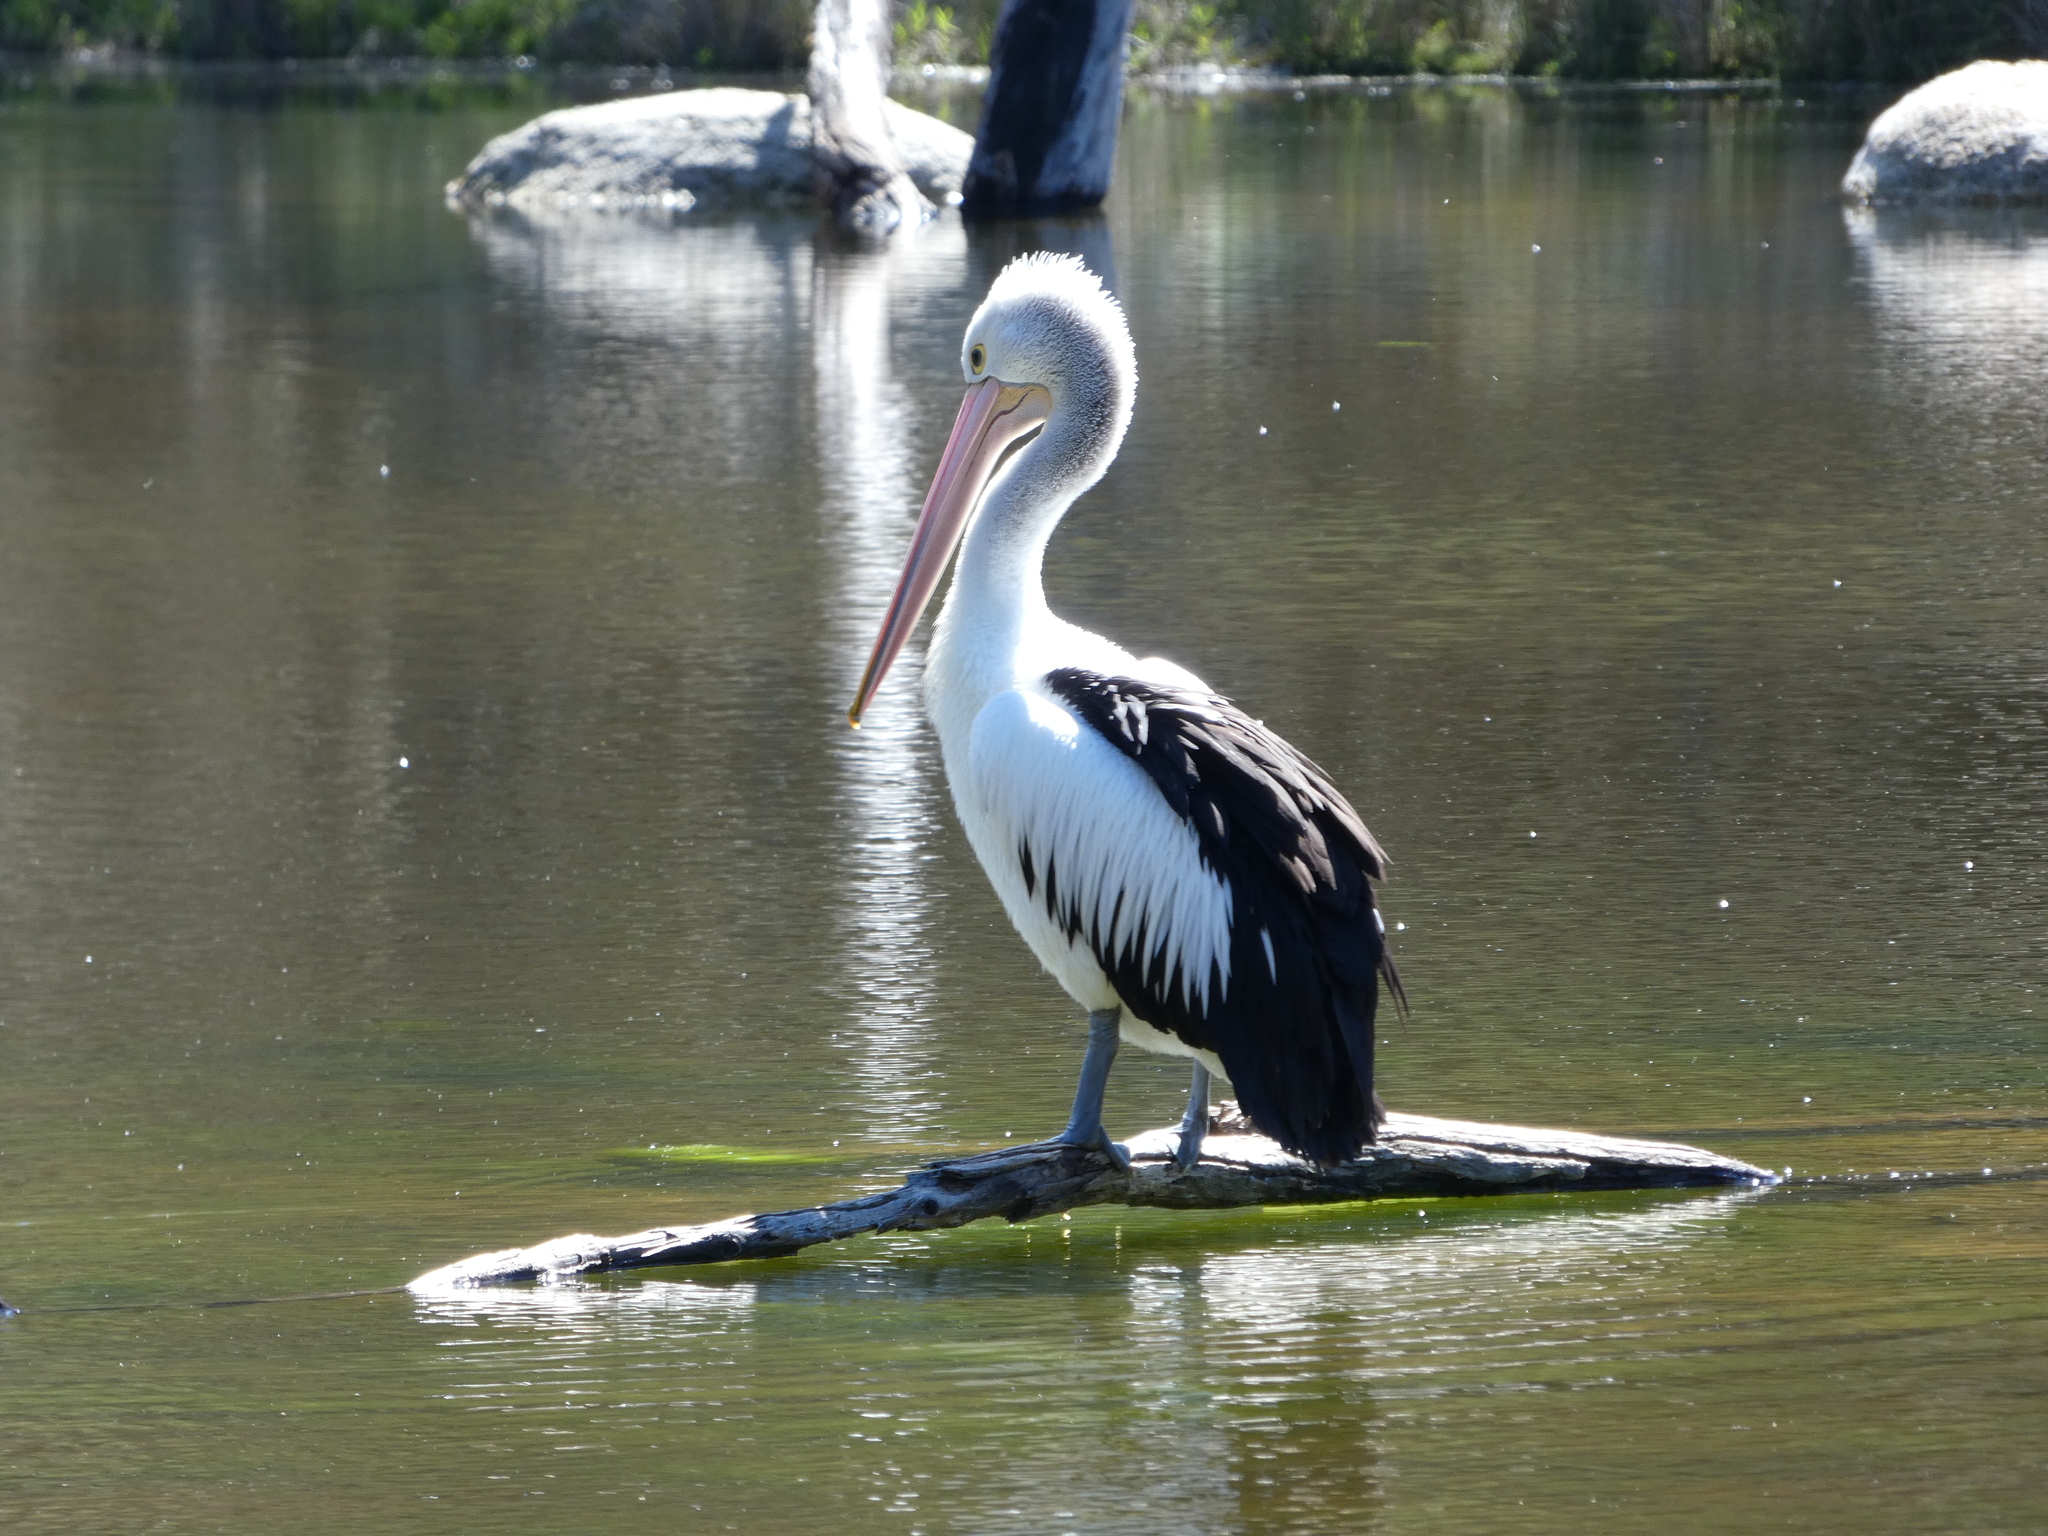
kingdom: Animalia
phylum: Chordata
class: Aves
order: Pelecaniformes
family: Pelecanidae
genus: Pelecanus
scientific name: Pelecanus conspicillatus
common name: Australian pelican
